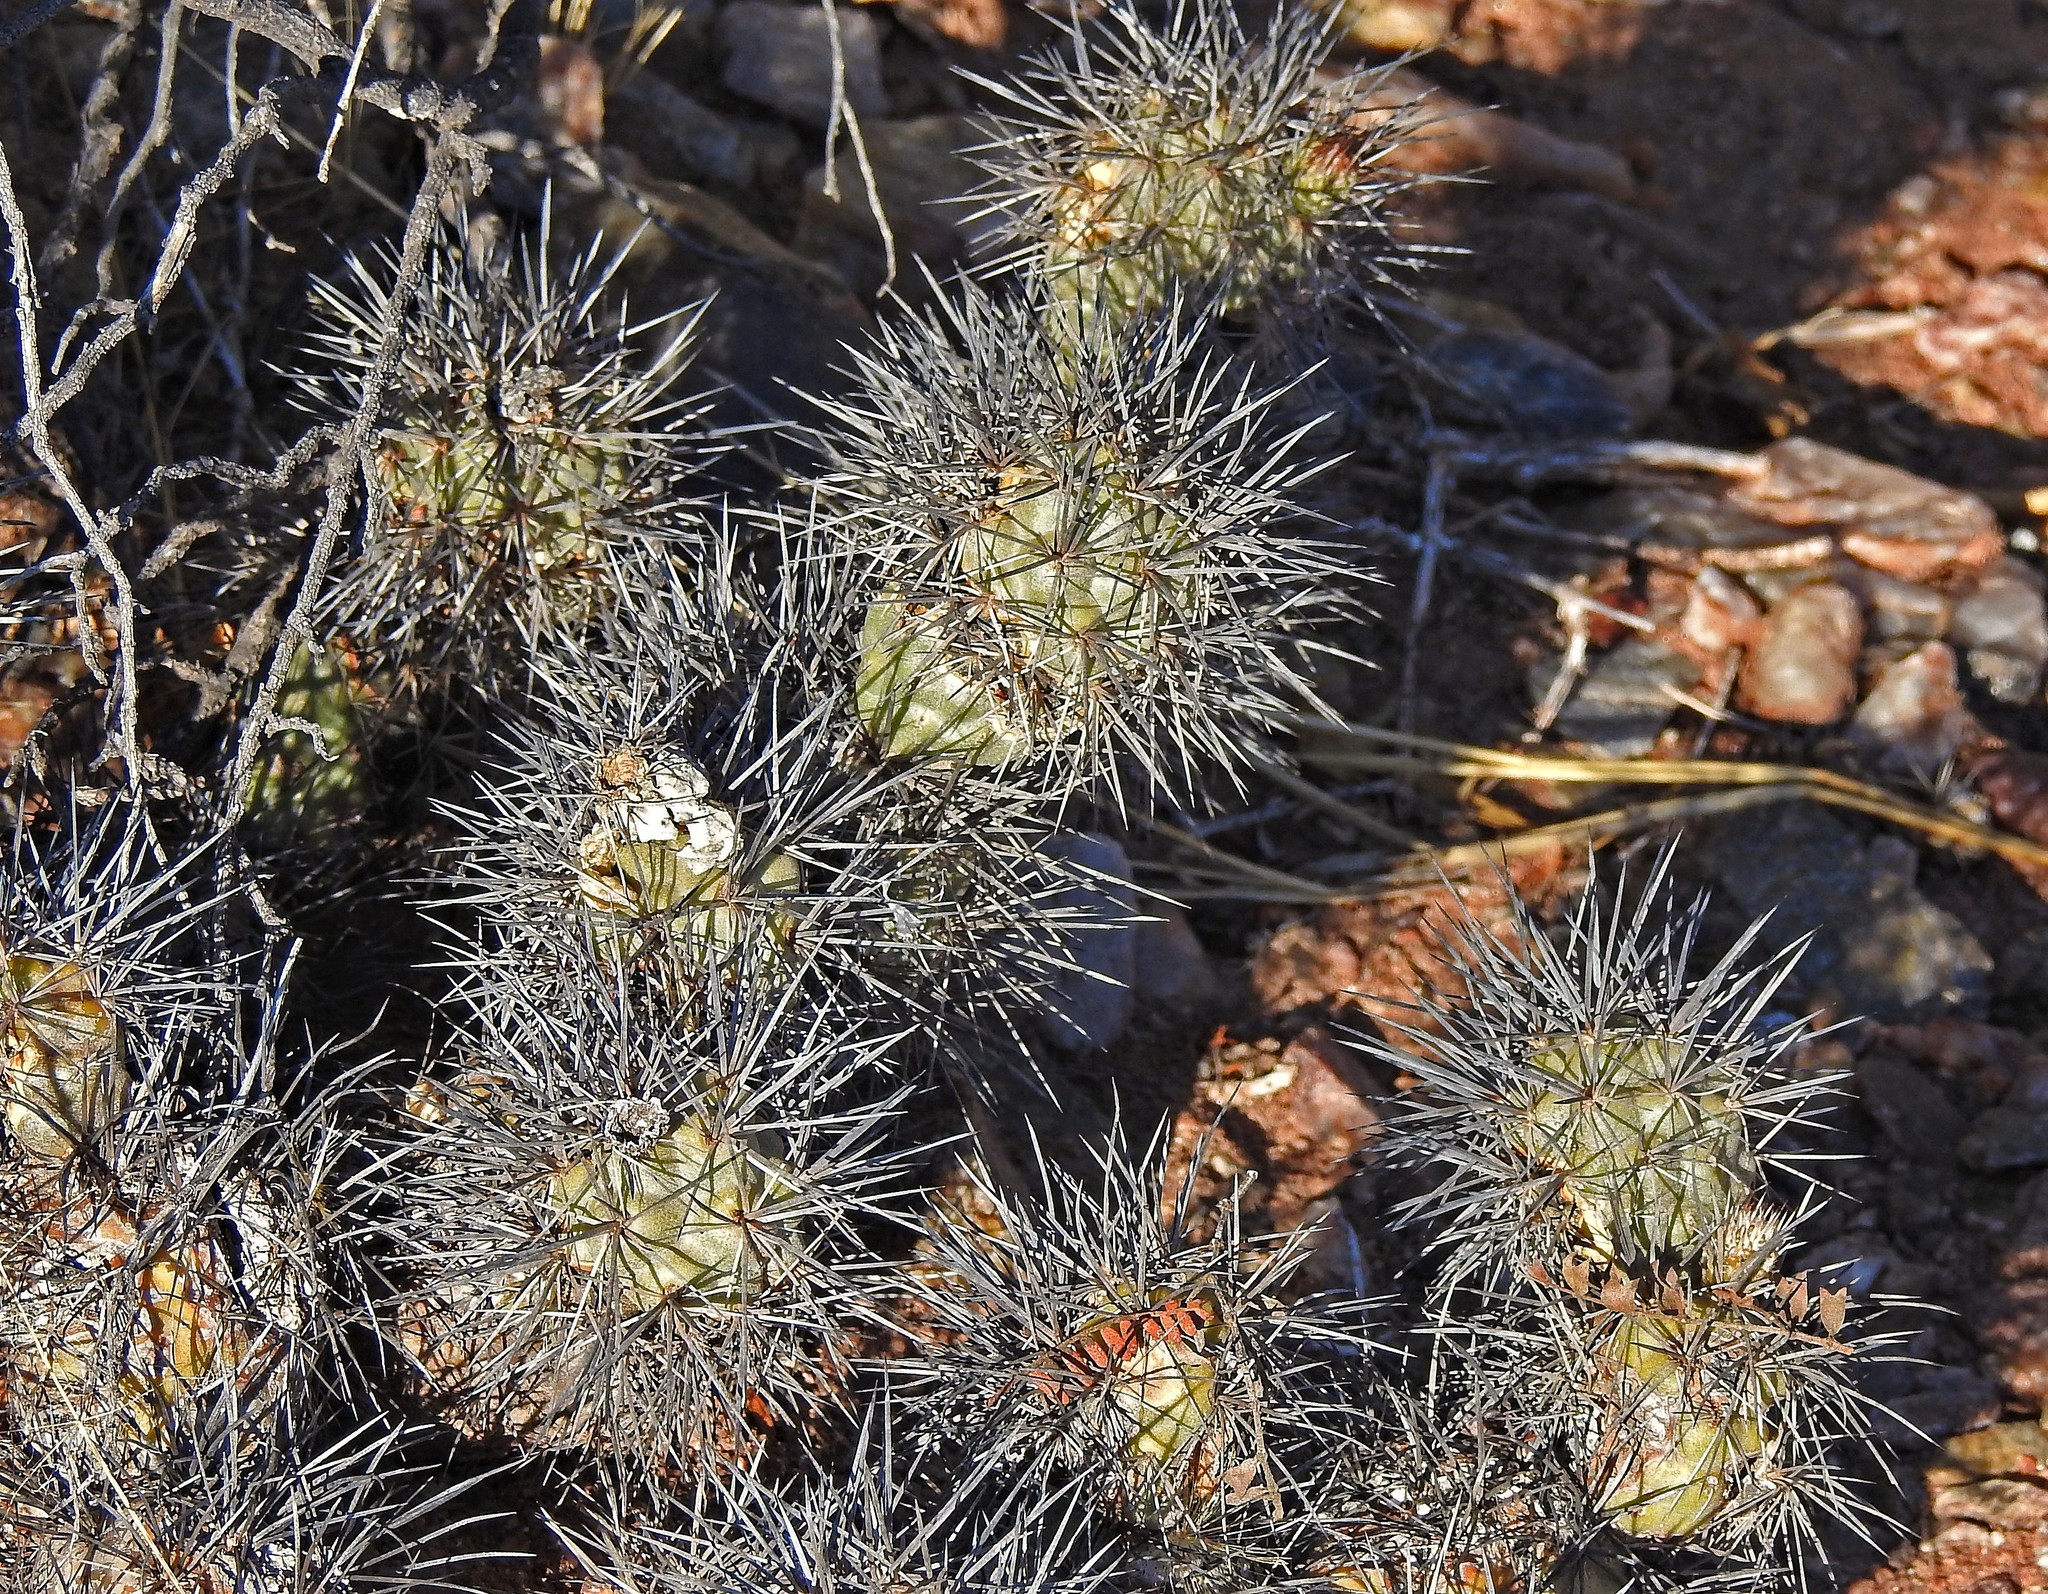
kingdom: Plantae
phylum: Tracheophyta
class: Magnoliopsida
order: Caryophyllales
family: Cactaceae
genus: Tephrocactus
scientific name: Tephrocactus alexanderi
